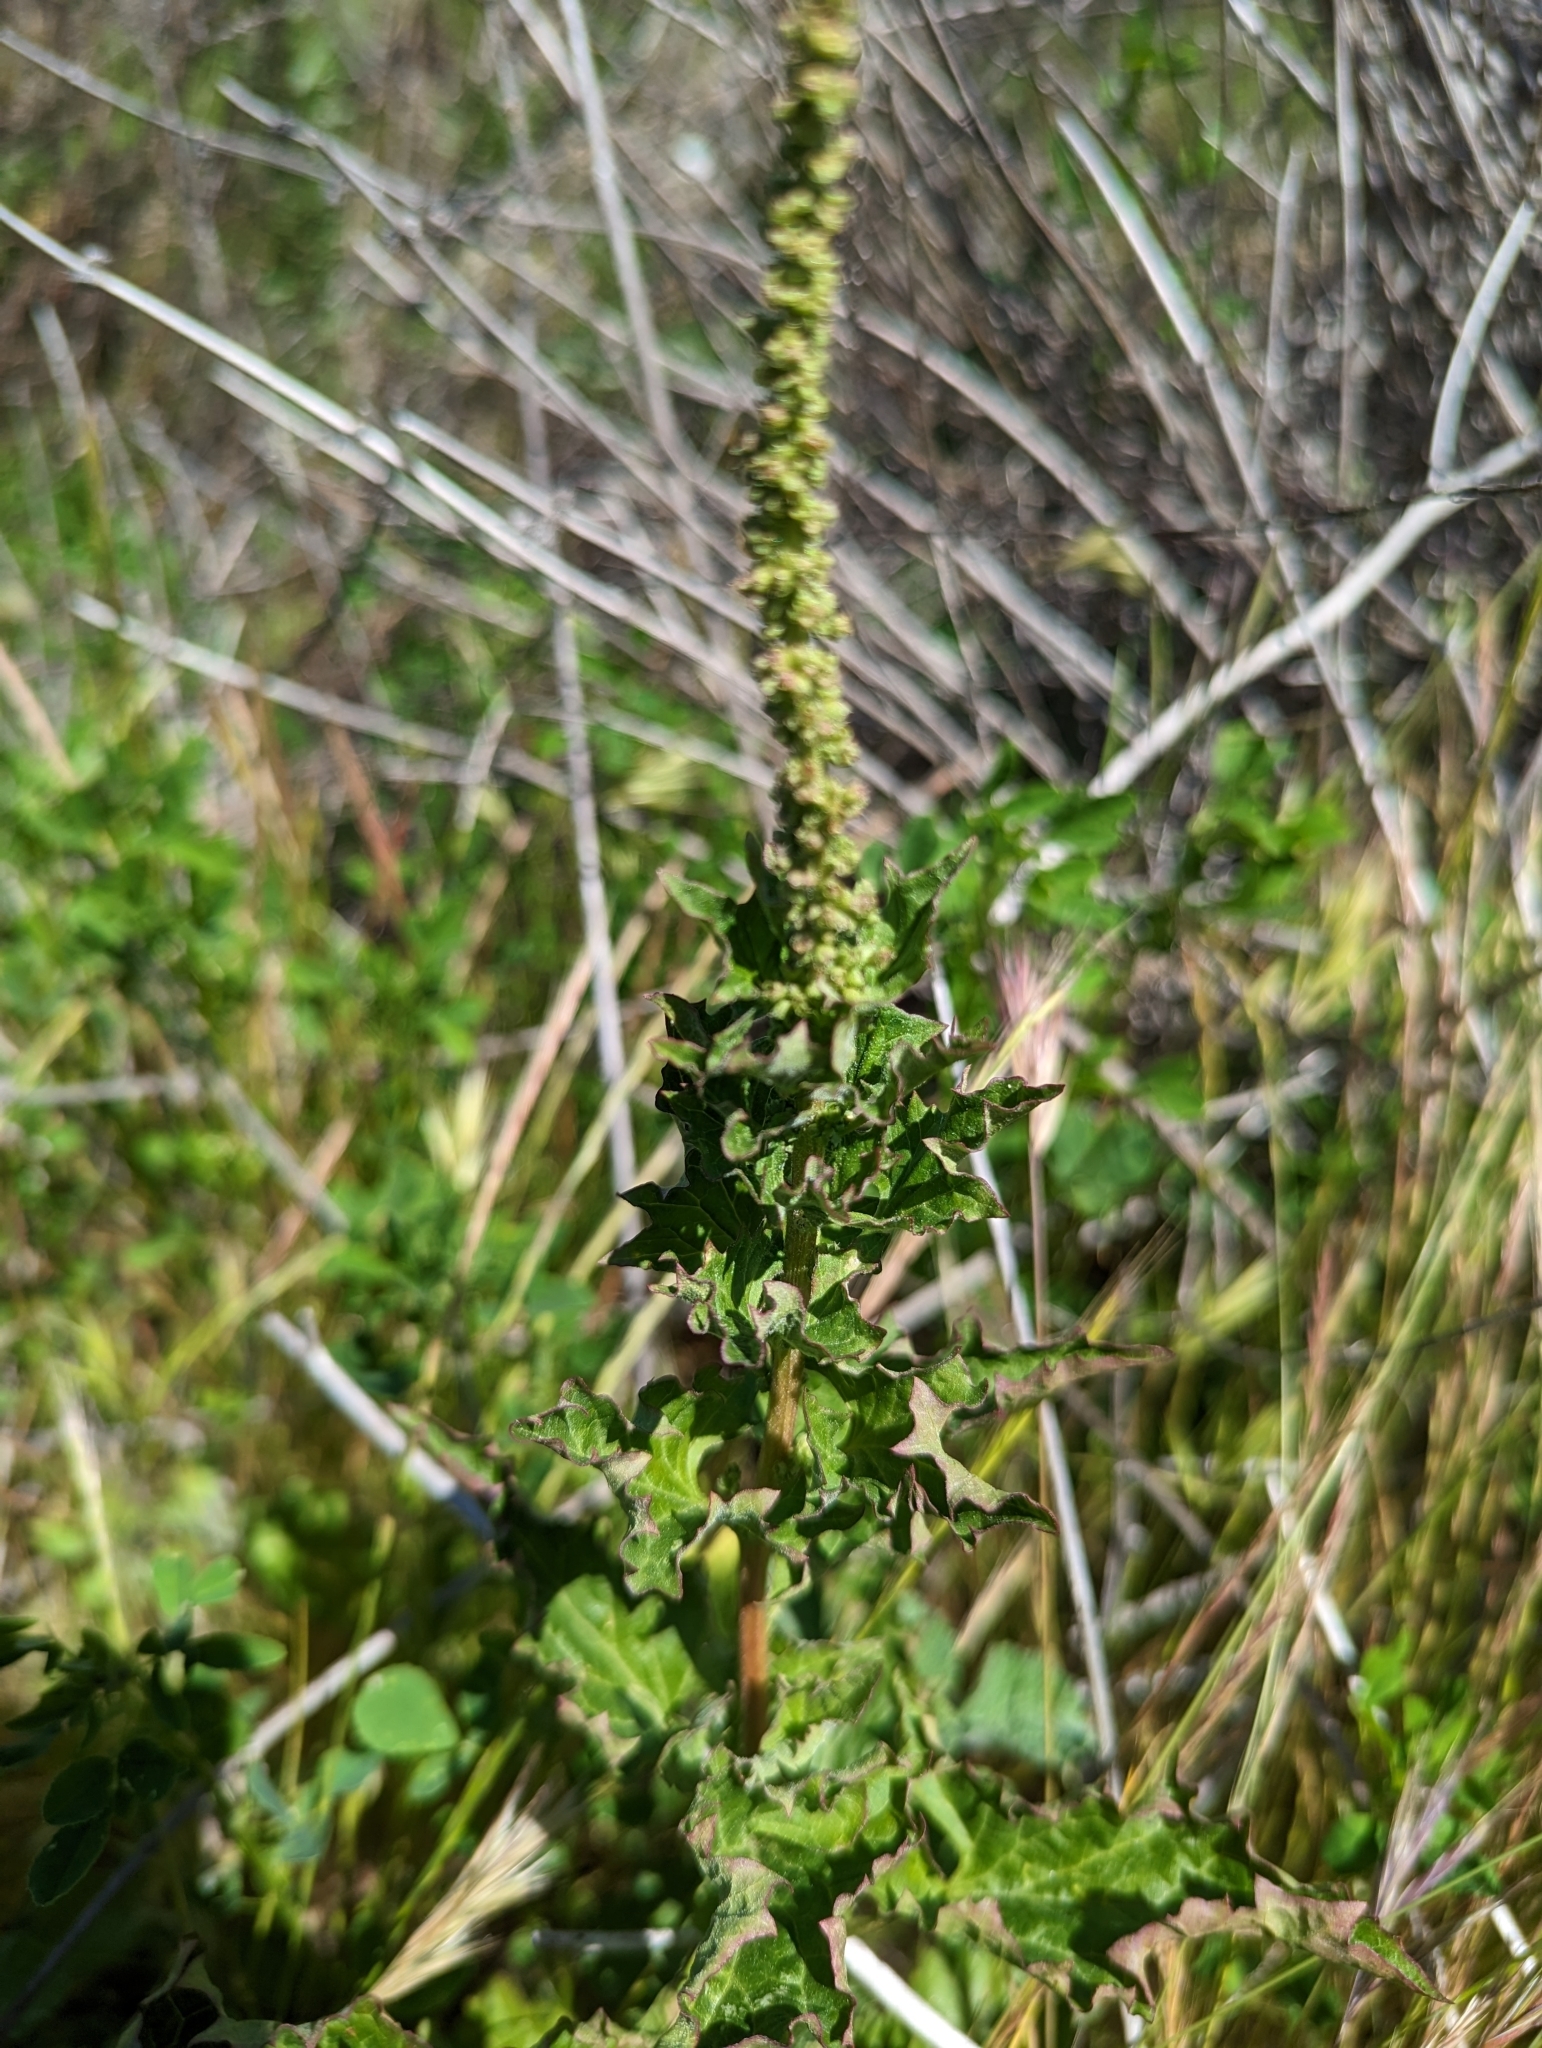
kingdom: Plantae
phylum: Tracheophyta
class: Magnoliopsida
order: Caryophyllales
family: Amaranthaceae
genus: Blitum
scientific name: Blitum californicum
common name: California goosefoot
